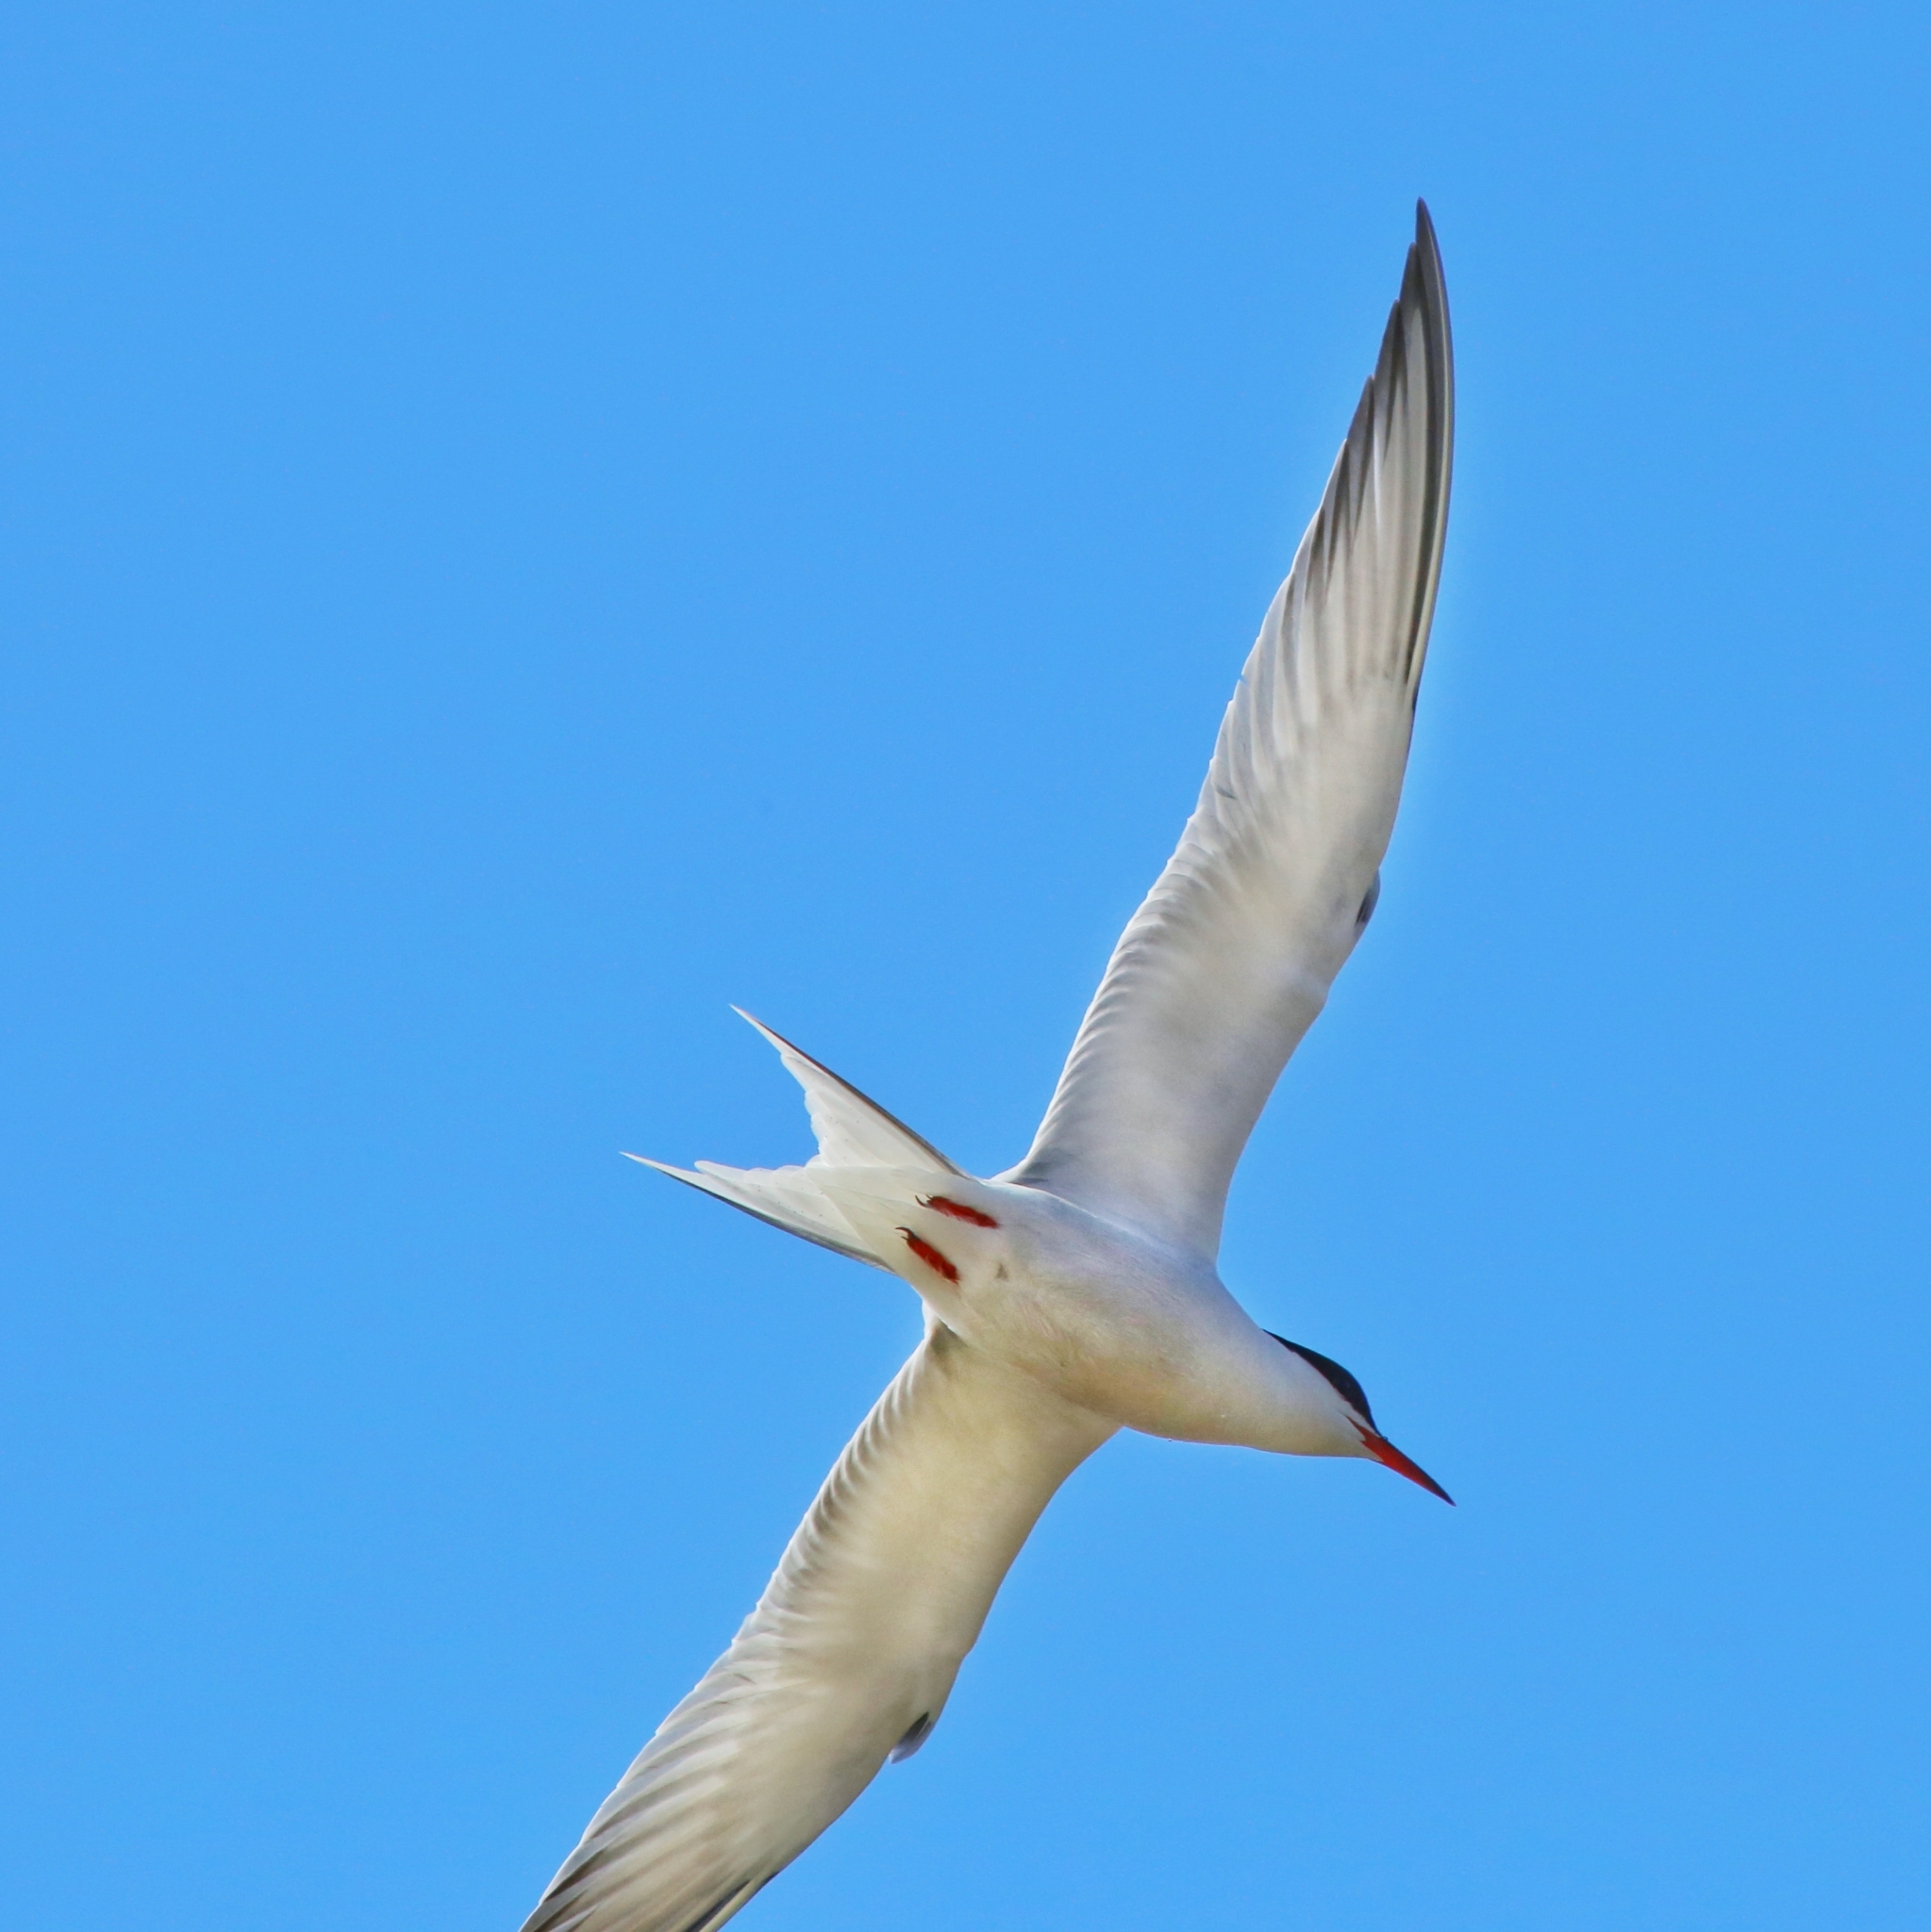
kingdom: Animalia
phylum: Chordata
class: Aves
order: Charadriiformes
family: Laridae
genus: Sterna
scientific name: Sterna hirundo
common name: Common tern
